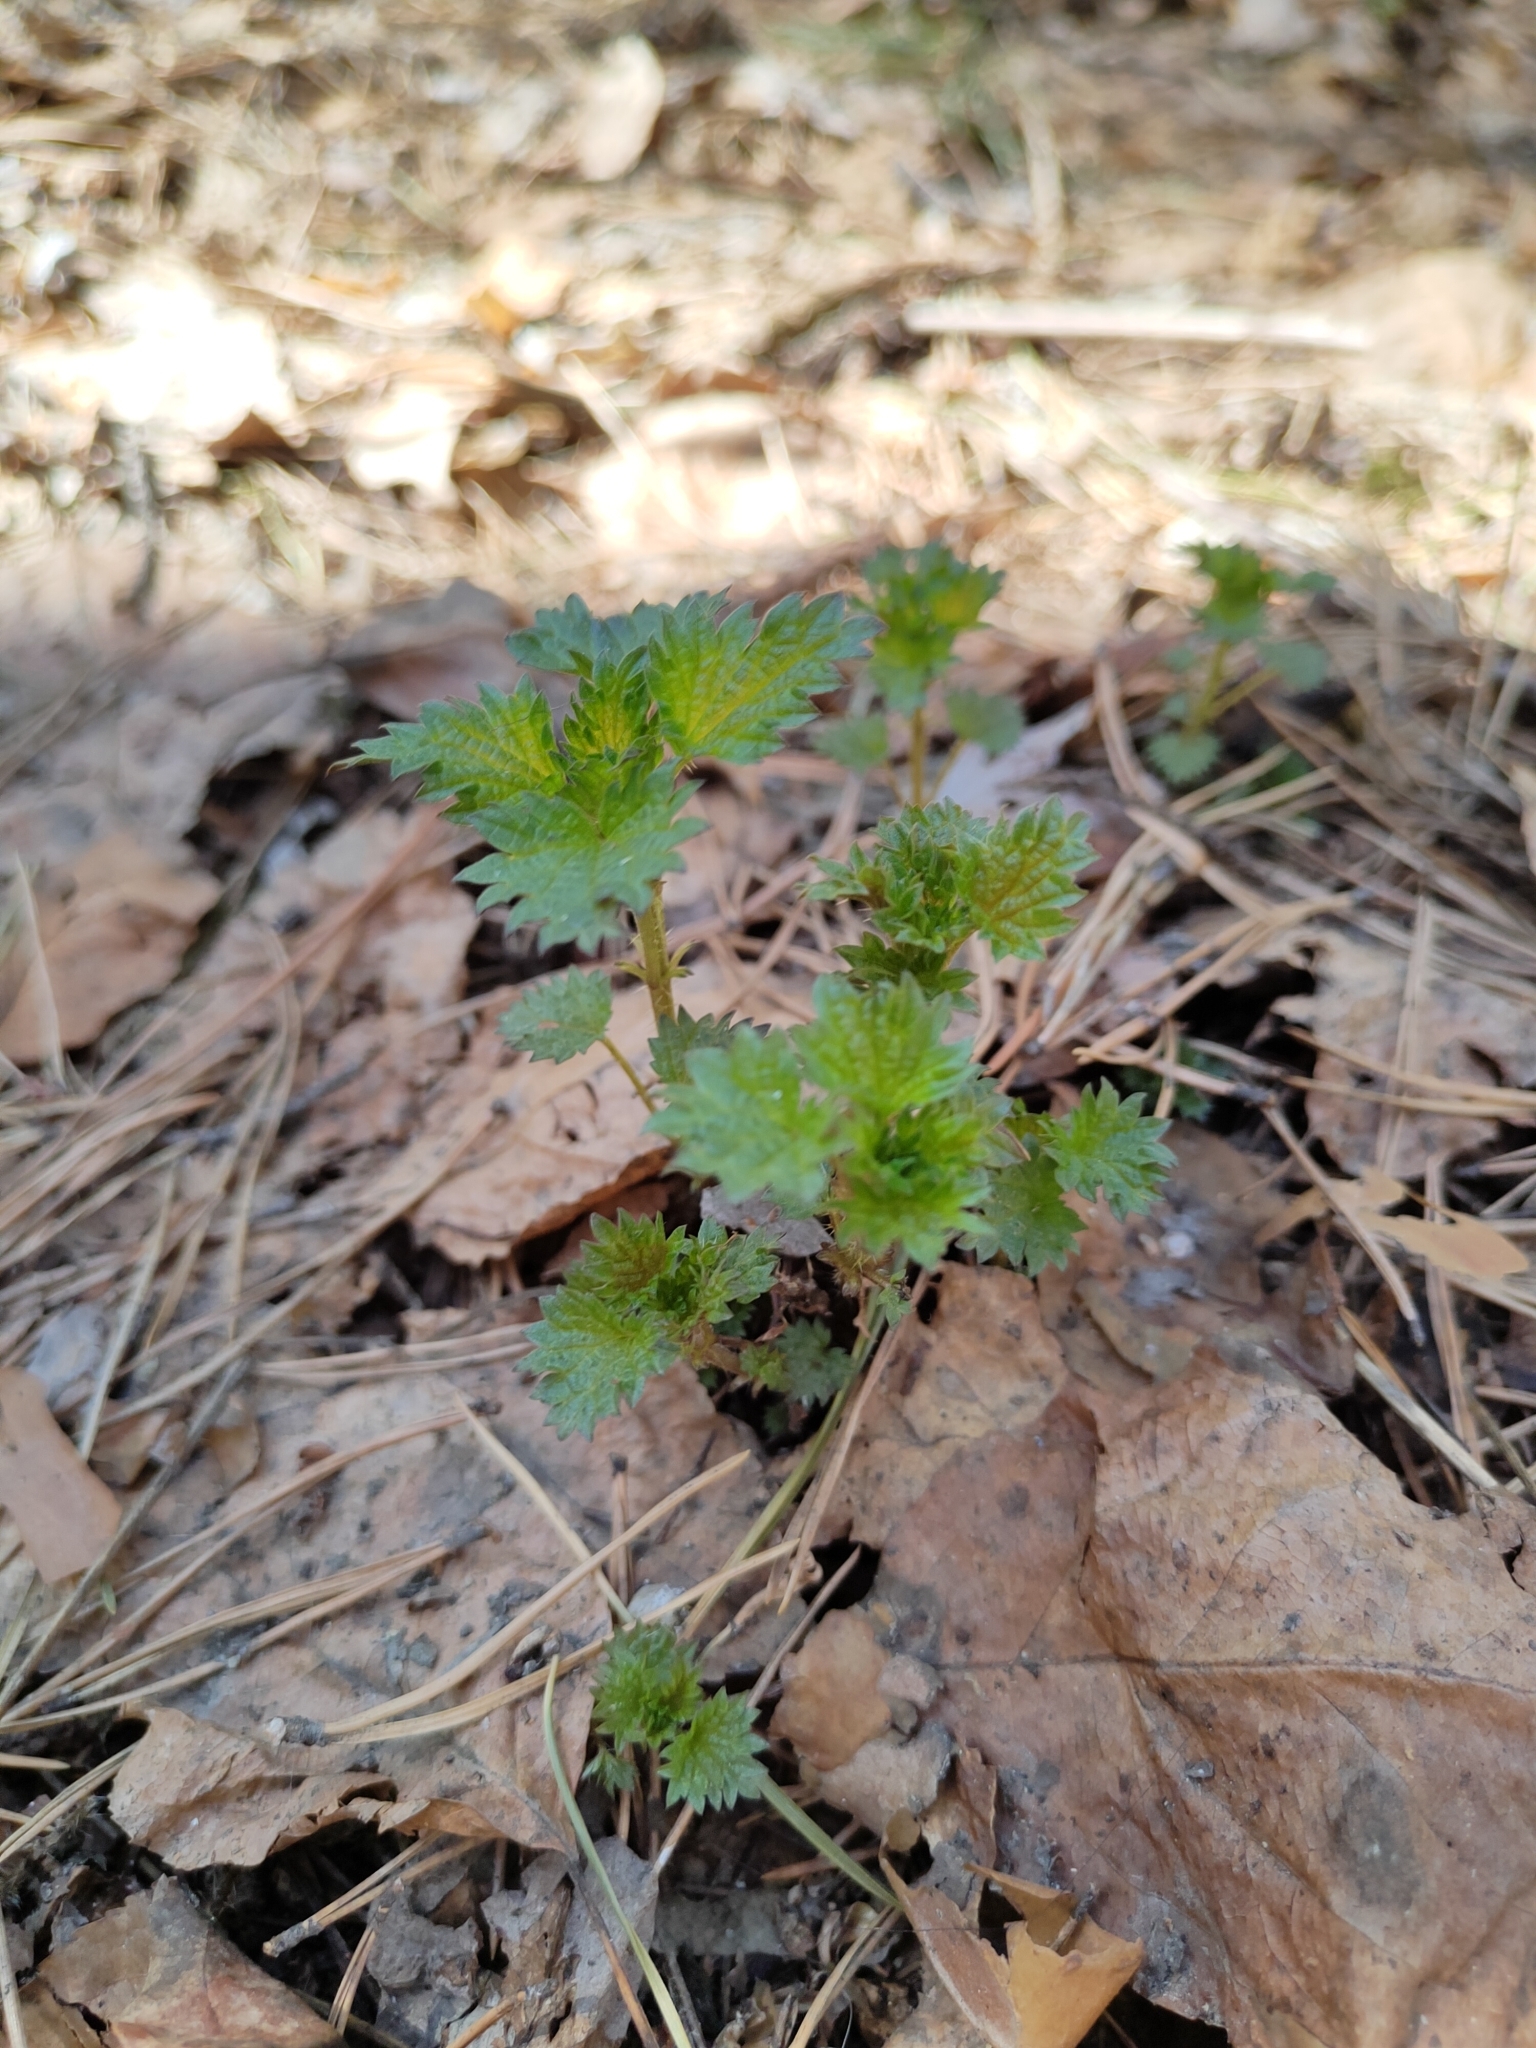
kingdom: Plantae
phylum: Tracheophyta
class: Magnoliopsida
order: Rosales
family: Urticaceae
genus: Urtica
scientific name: Urtica dioica
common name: Common nettle
